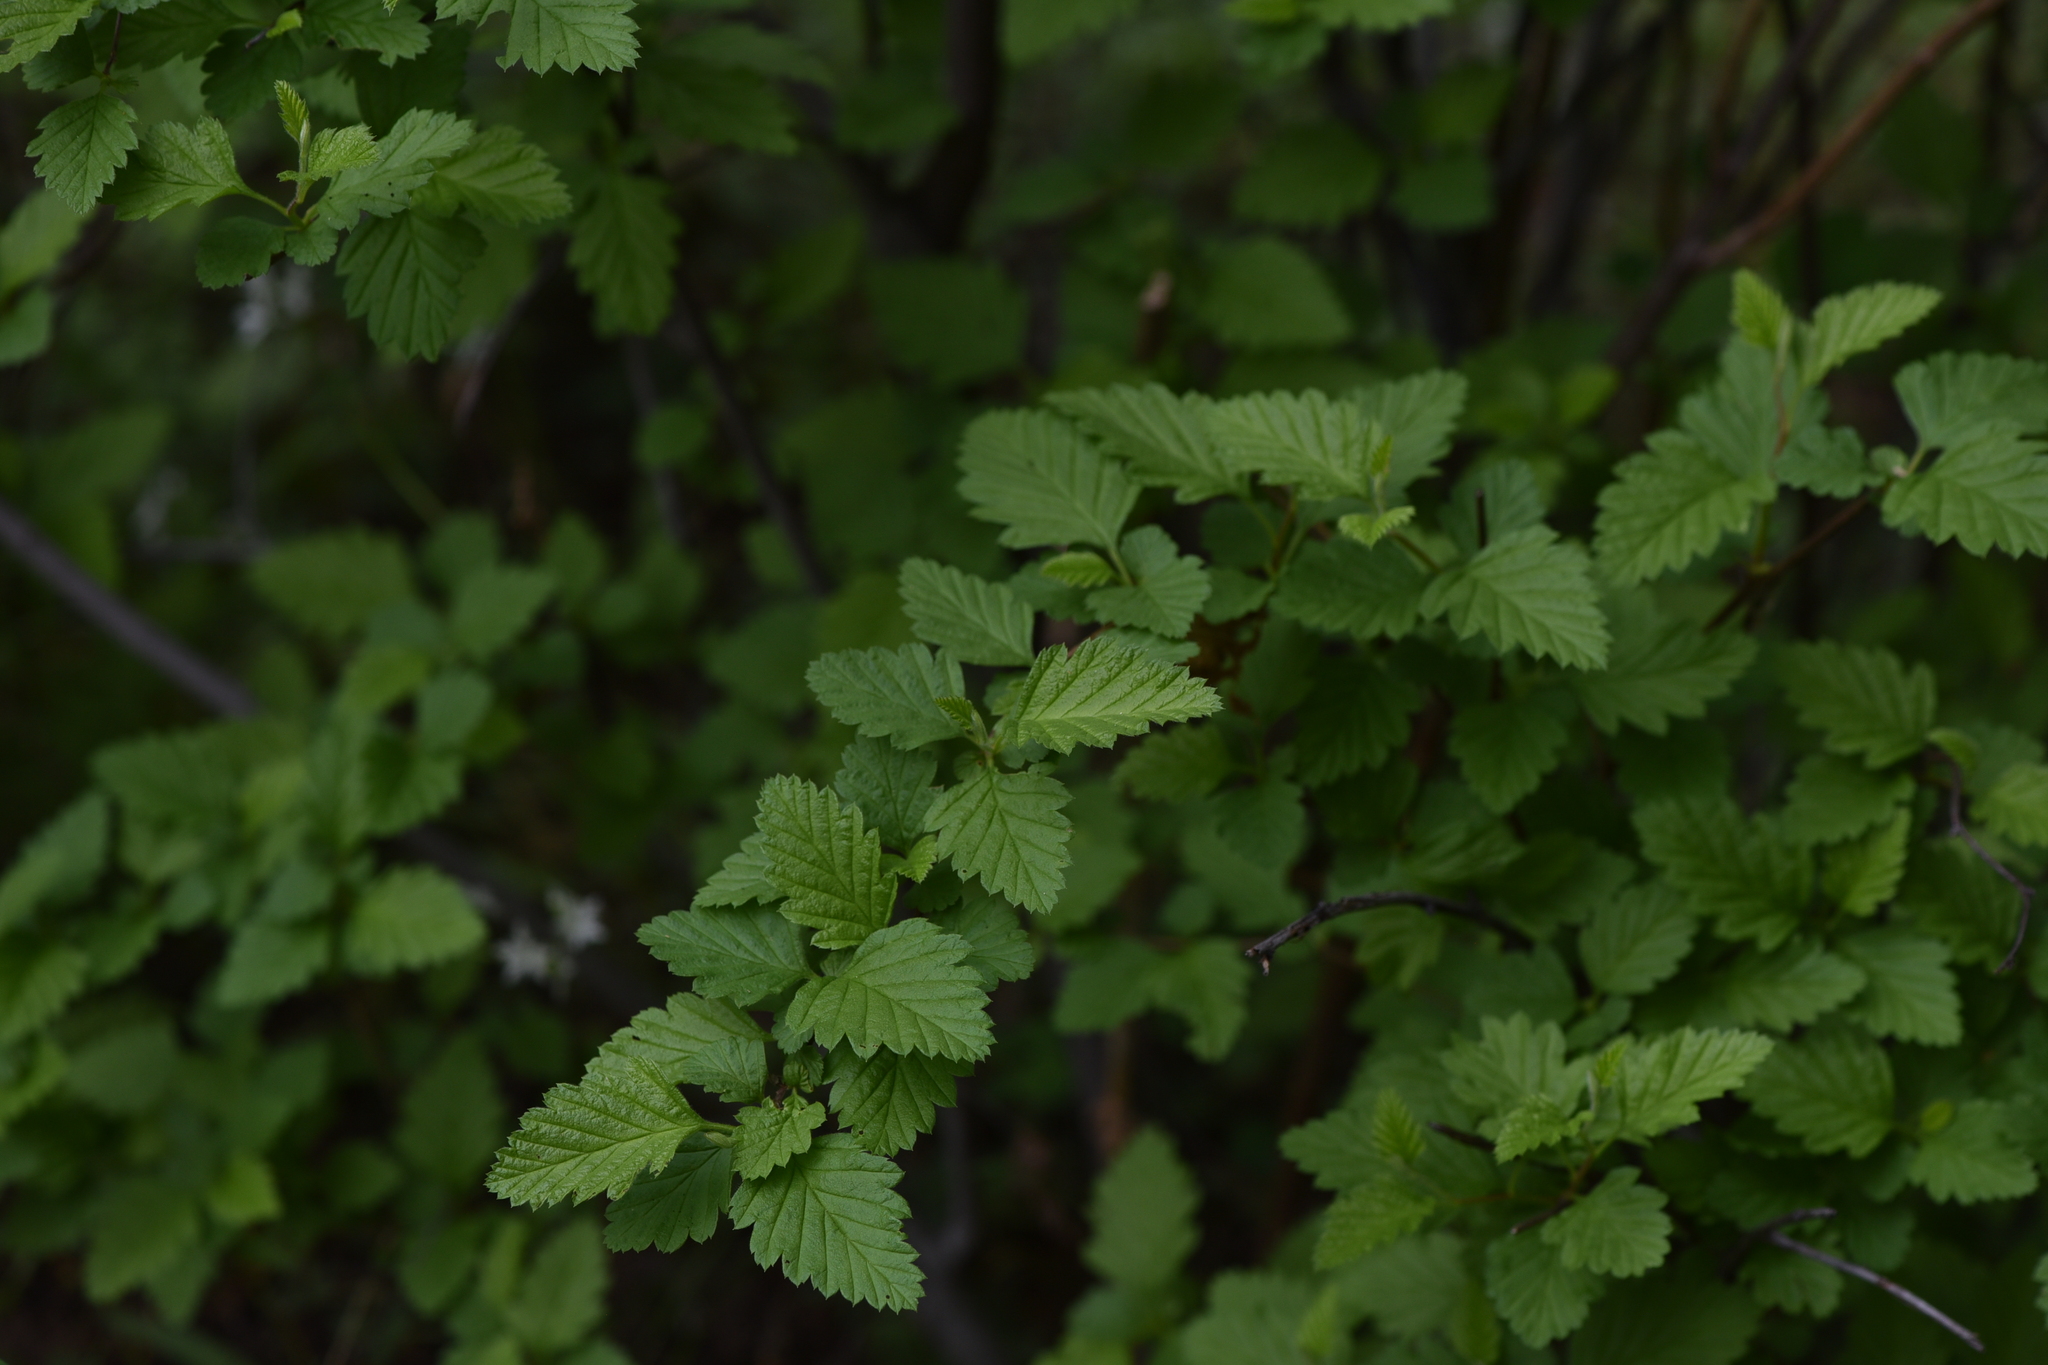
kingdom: Plantae
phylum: Tracheophyta
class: Magnoliopsida
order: Rosales
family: Rosaceae
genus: Holodiscus
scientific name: Holodiscus discolor
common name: Oceanspray
